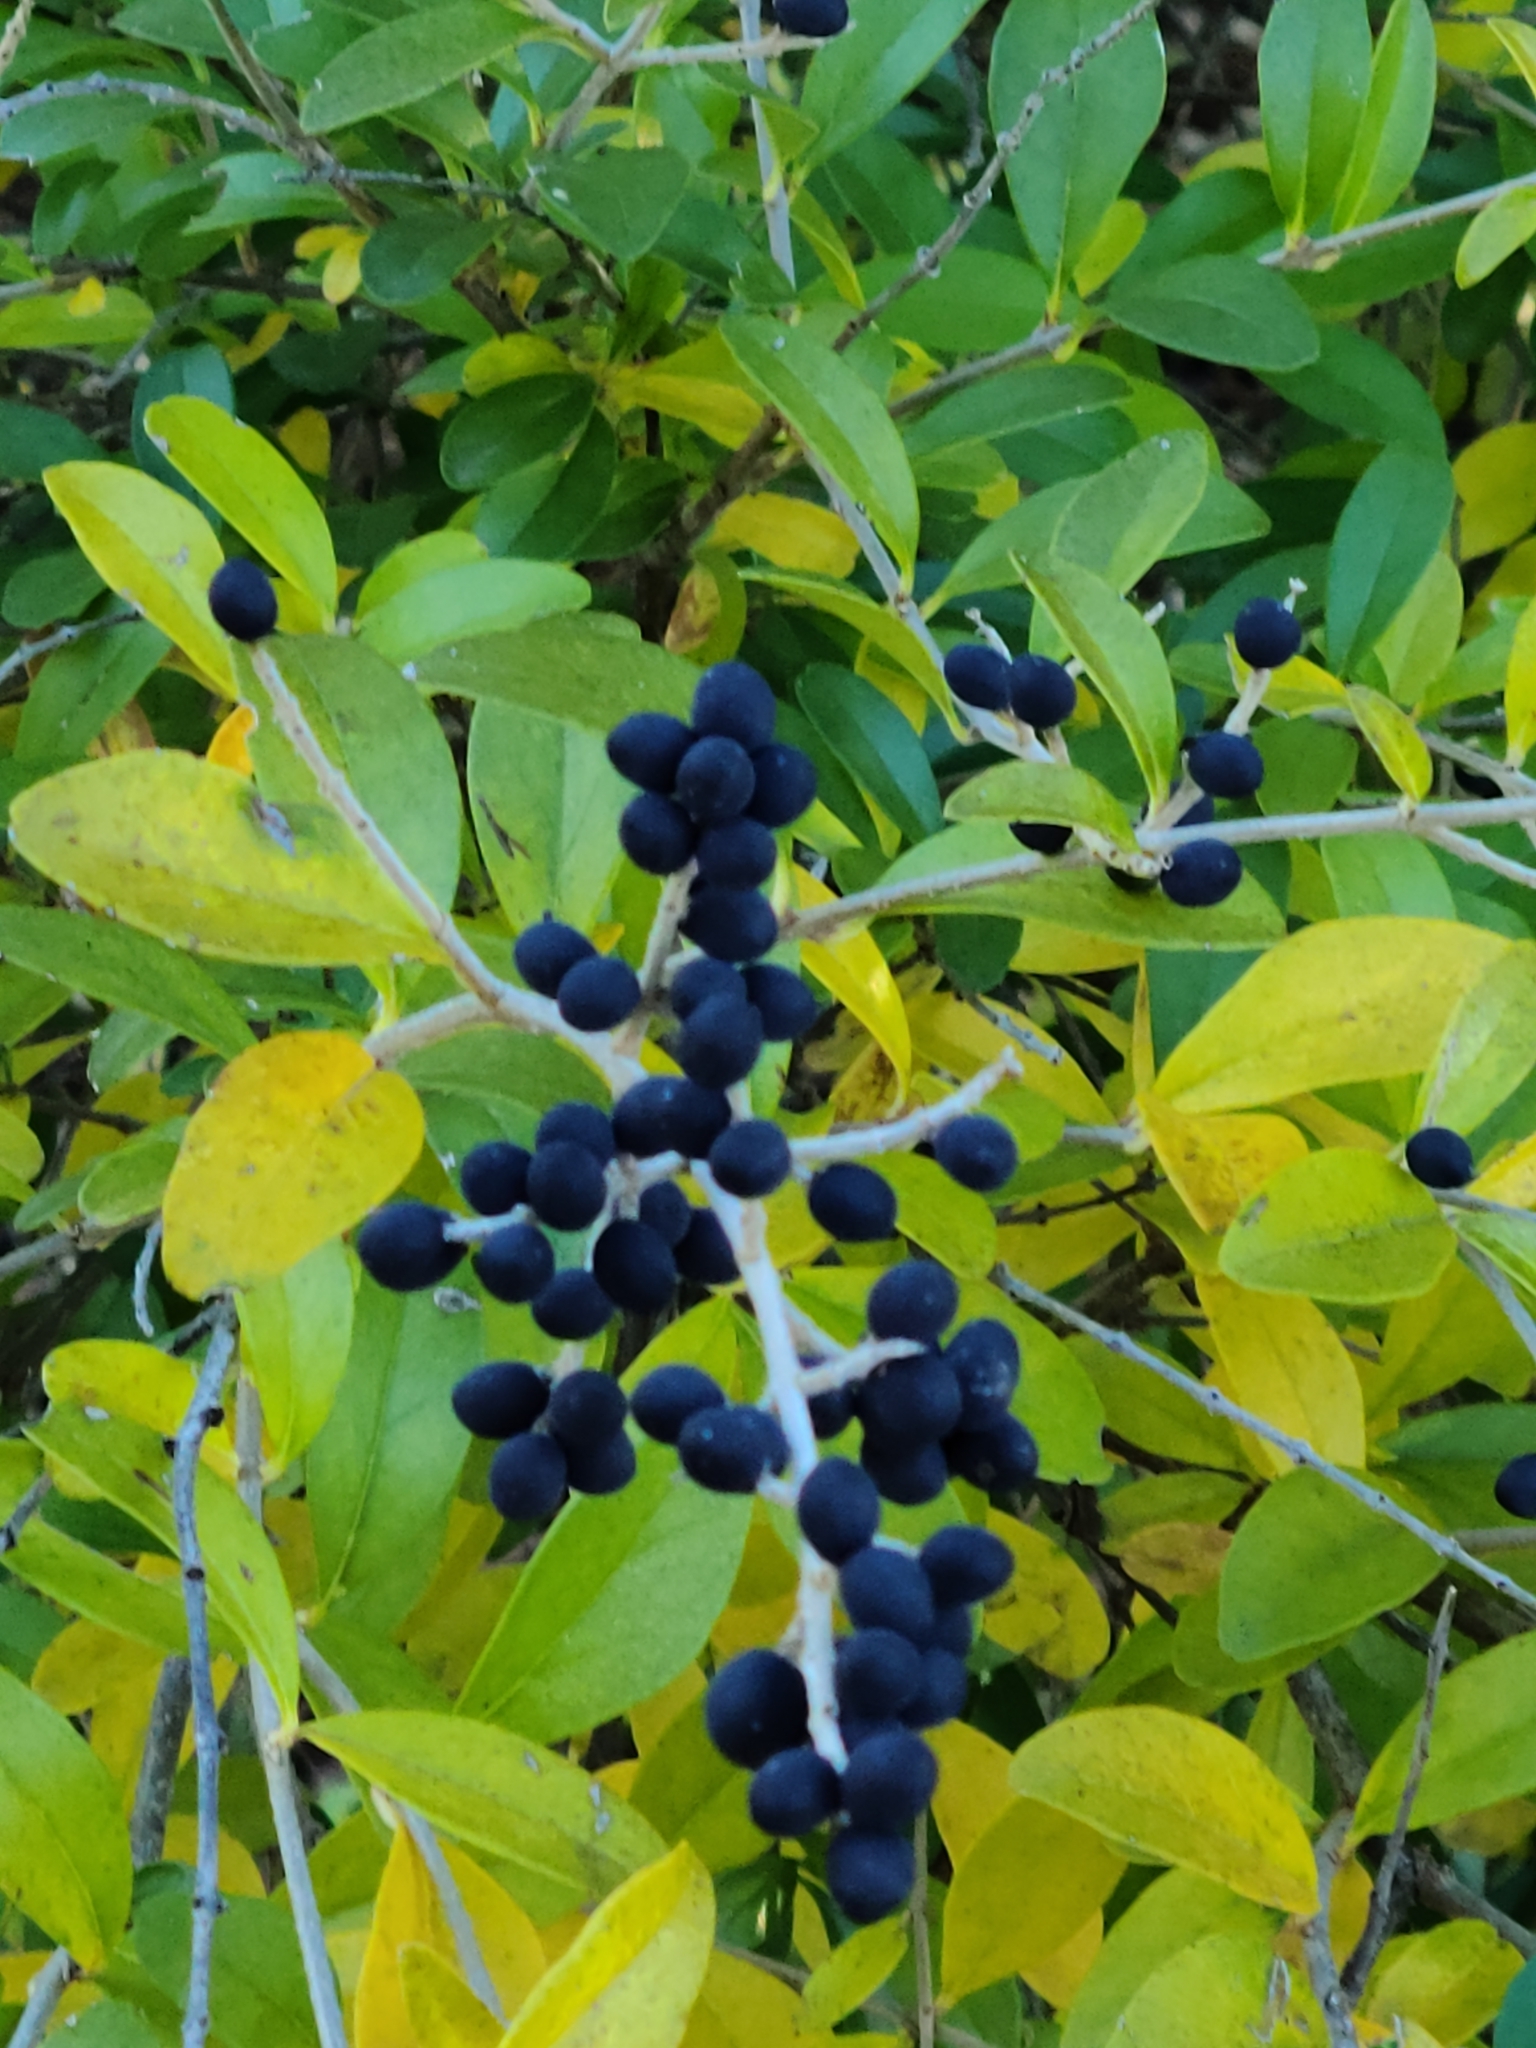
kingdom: Plantae
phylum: Tracheophyta
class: Magnoliopsida
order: Lamiales
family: Oleaceae
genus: Ligustrum
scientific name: Ligustrum quihoui
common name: Waxyleaf privet
